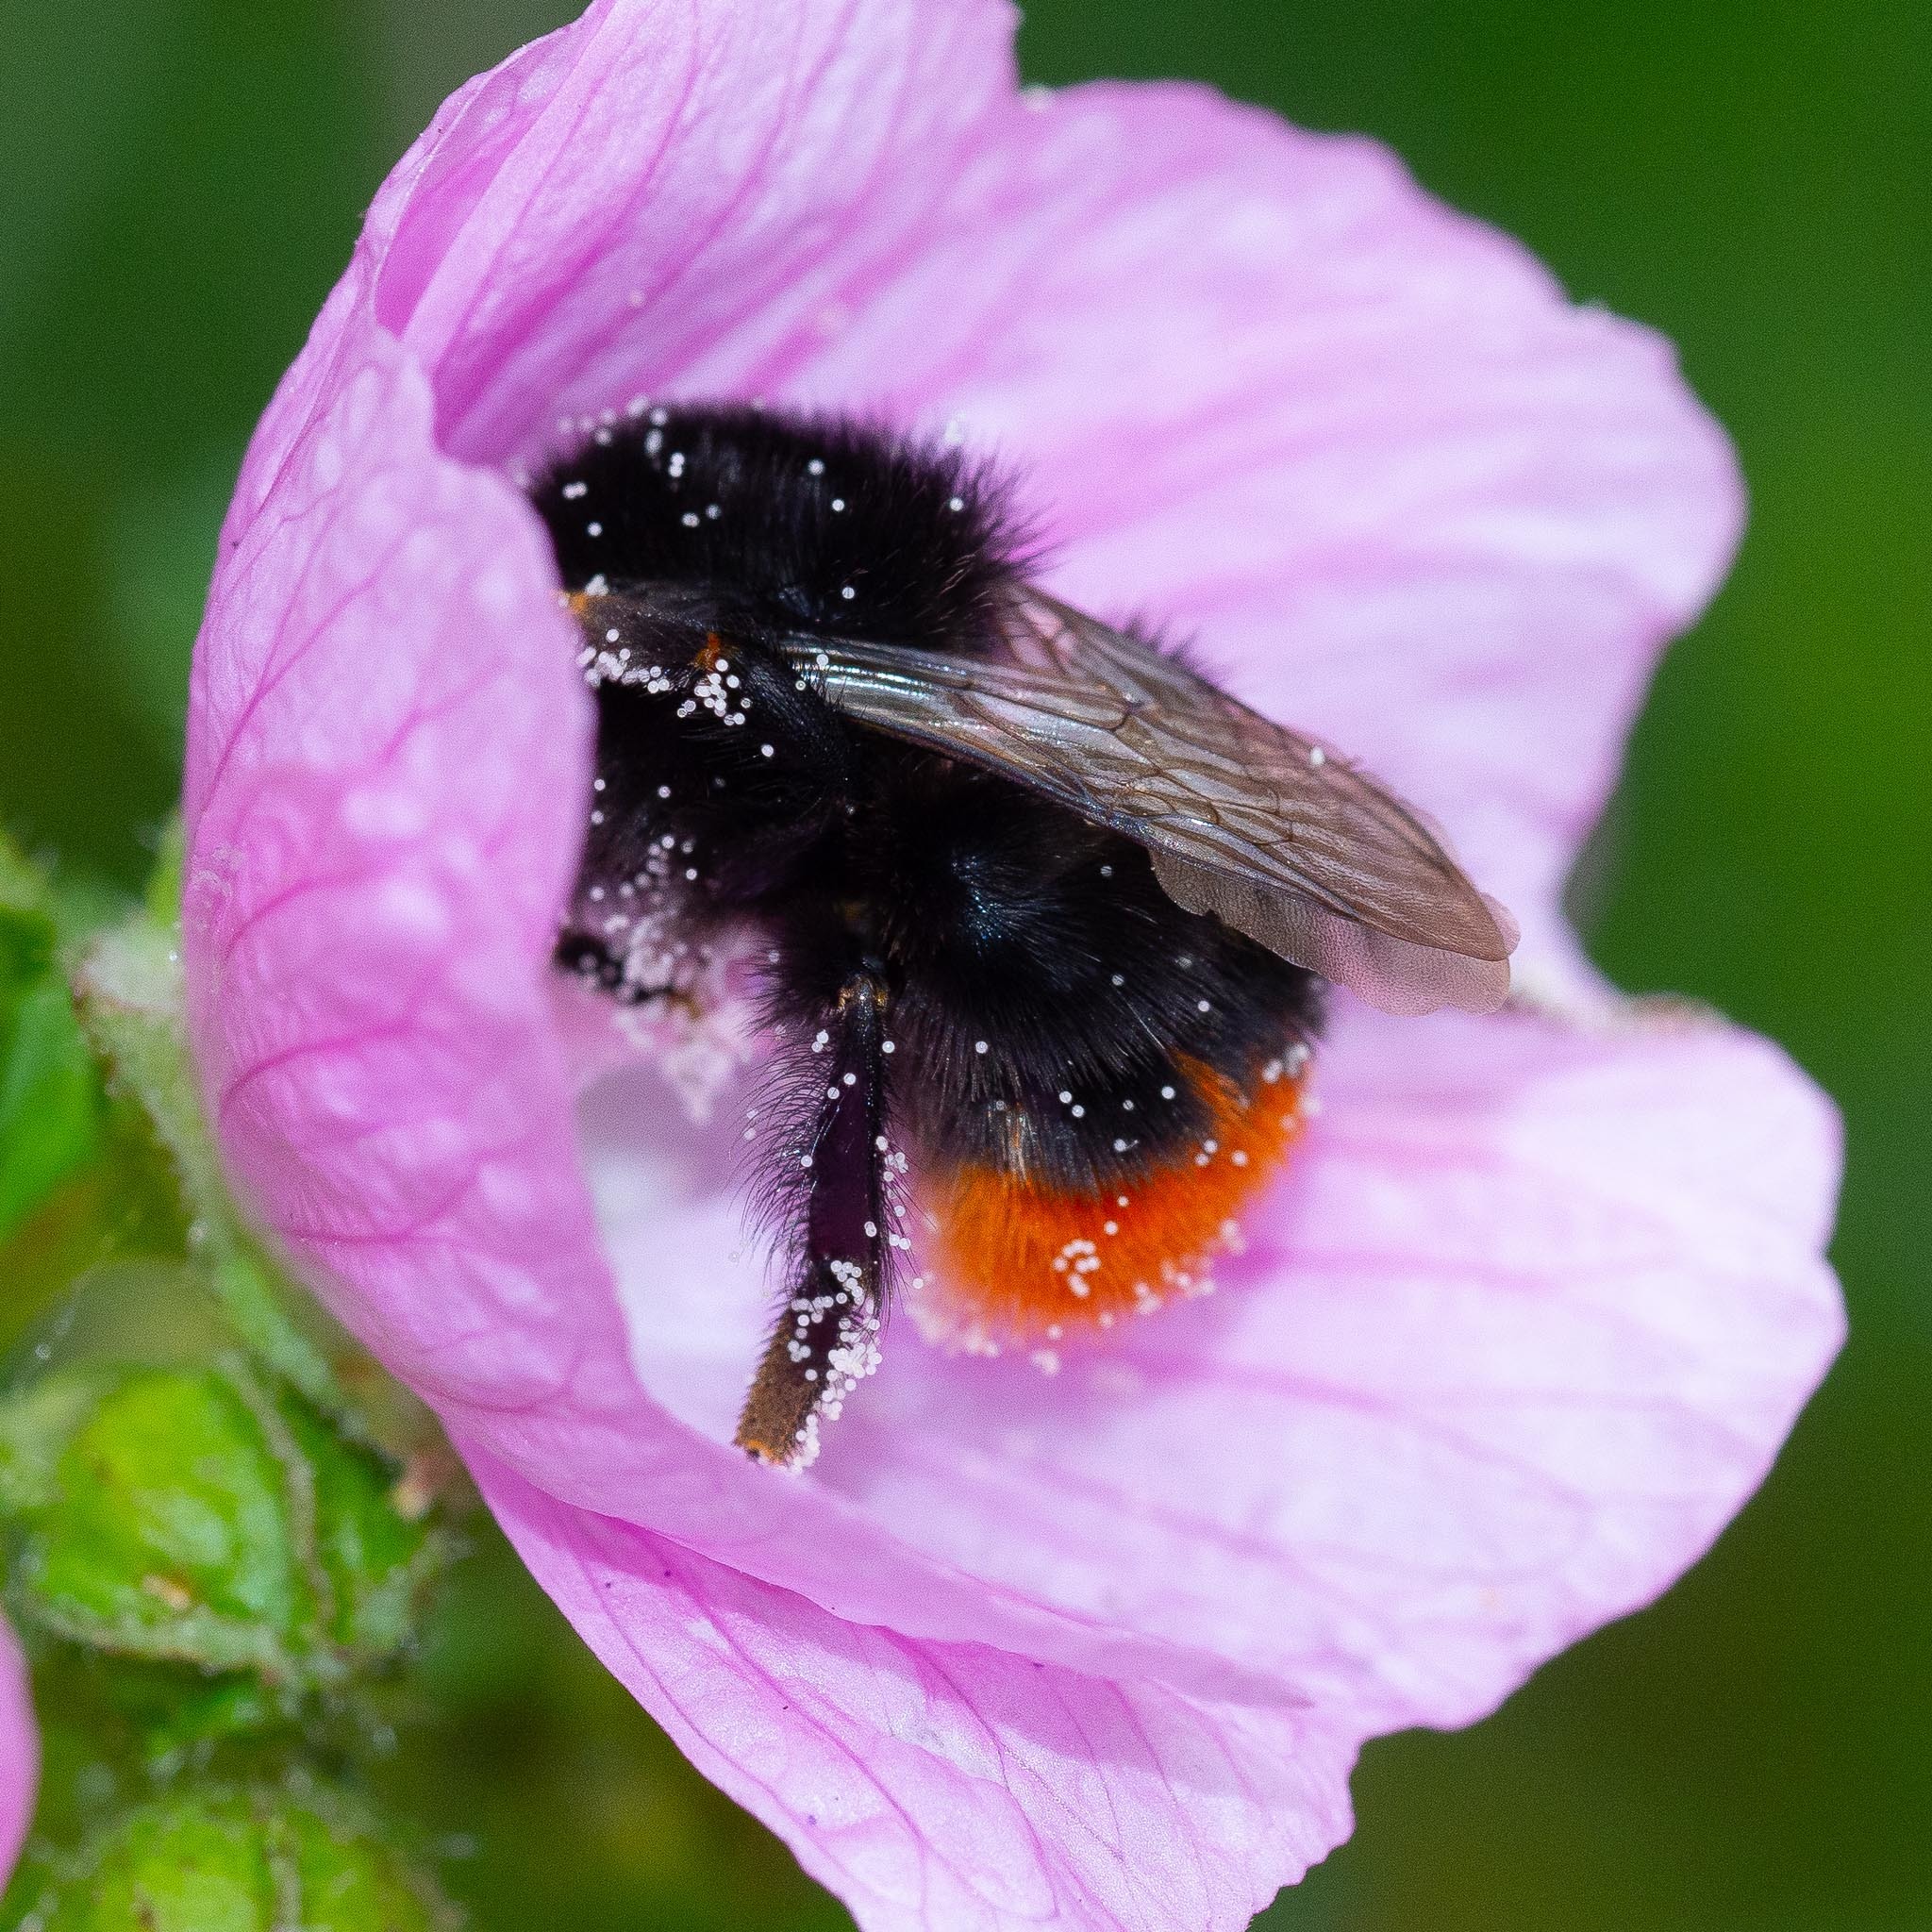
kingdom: Animalia
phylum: Arthropoda
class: Insecta
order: Hymenoptera
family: Apidae
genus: Bombus
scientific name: Bombus lapidarius
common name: Large red-tailed humble-bee
